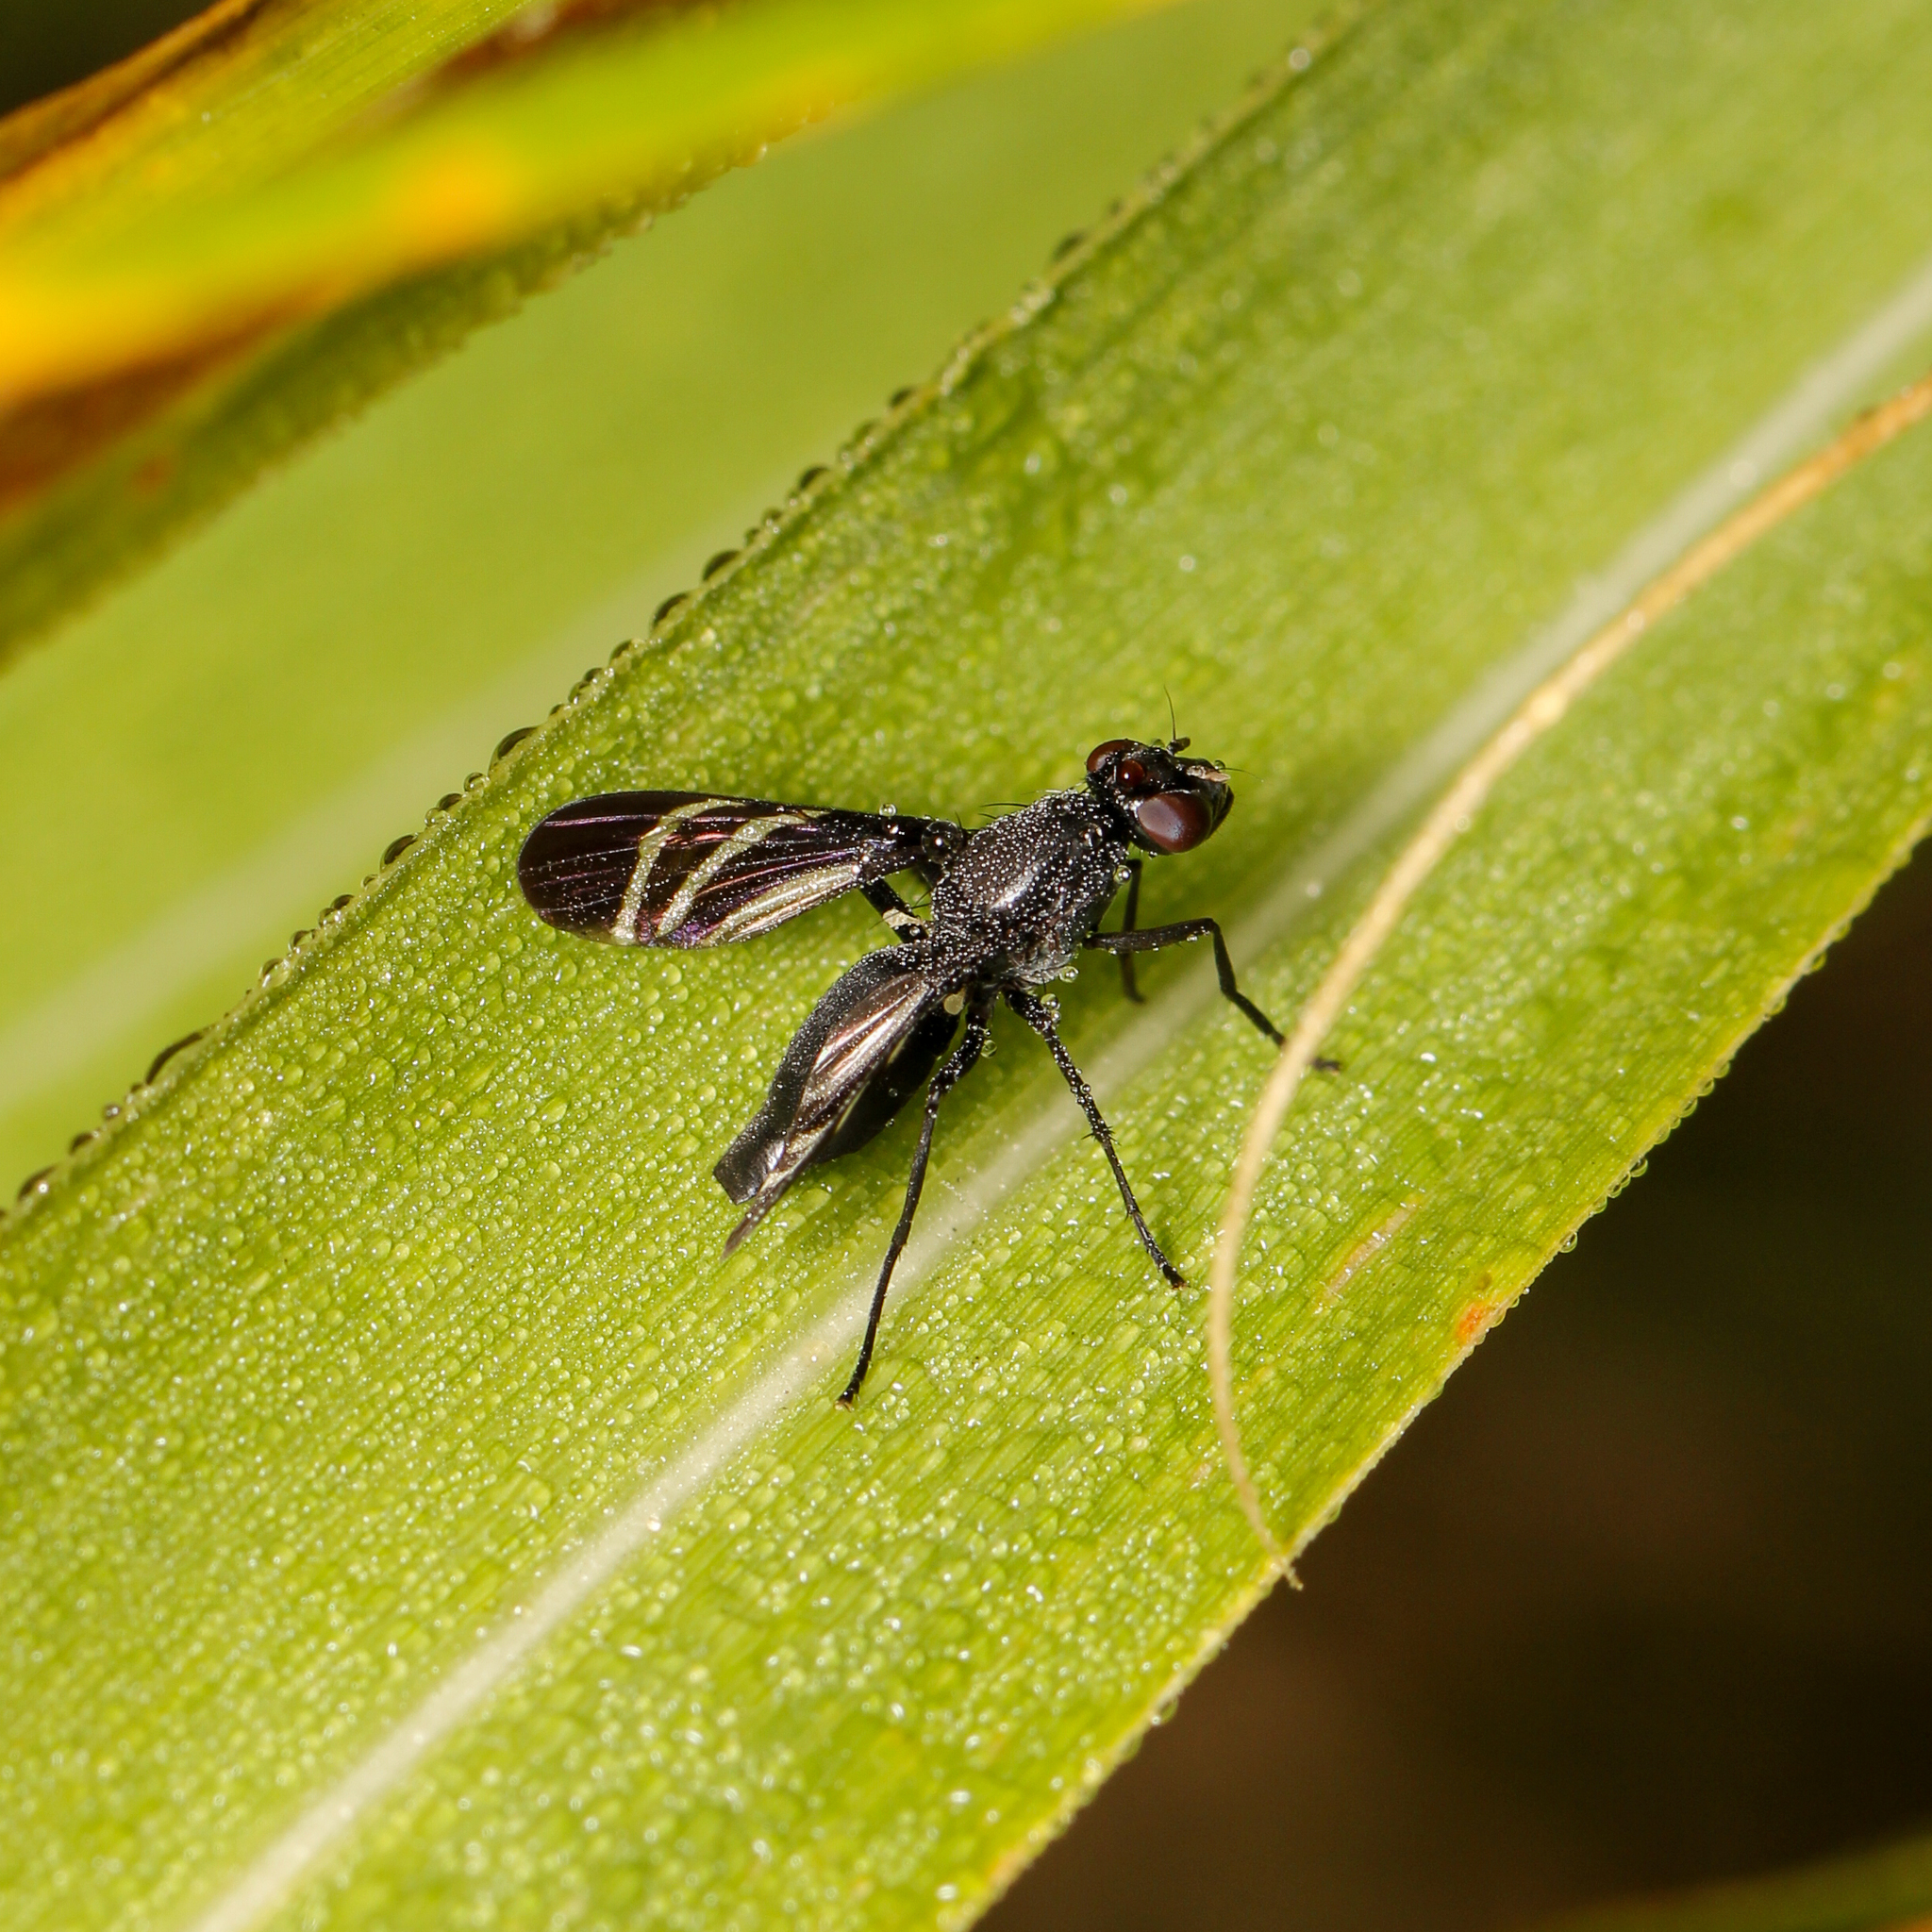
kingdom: Animalia
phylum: Arthropoda
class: Insecta
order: Diptera
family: Ulidiidae
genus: Tritoxa
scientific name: Tritoxa flexa
